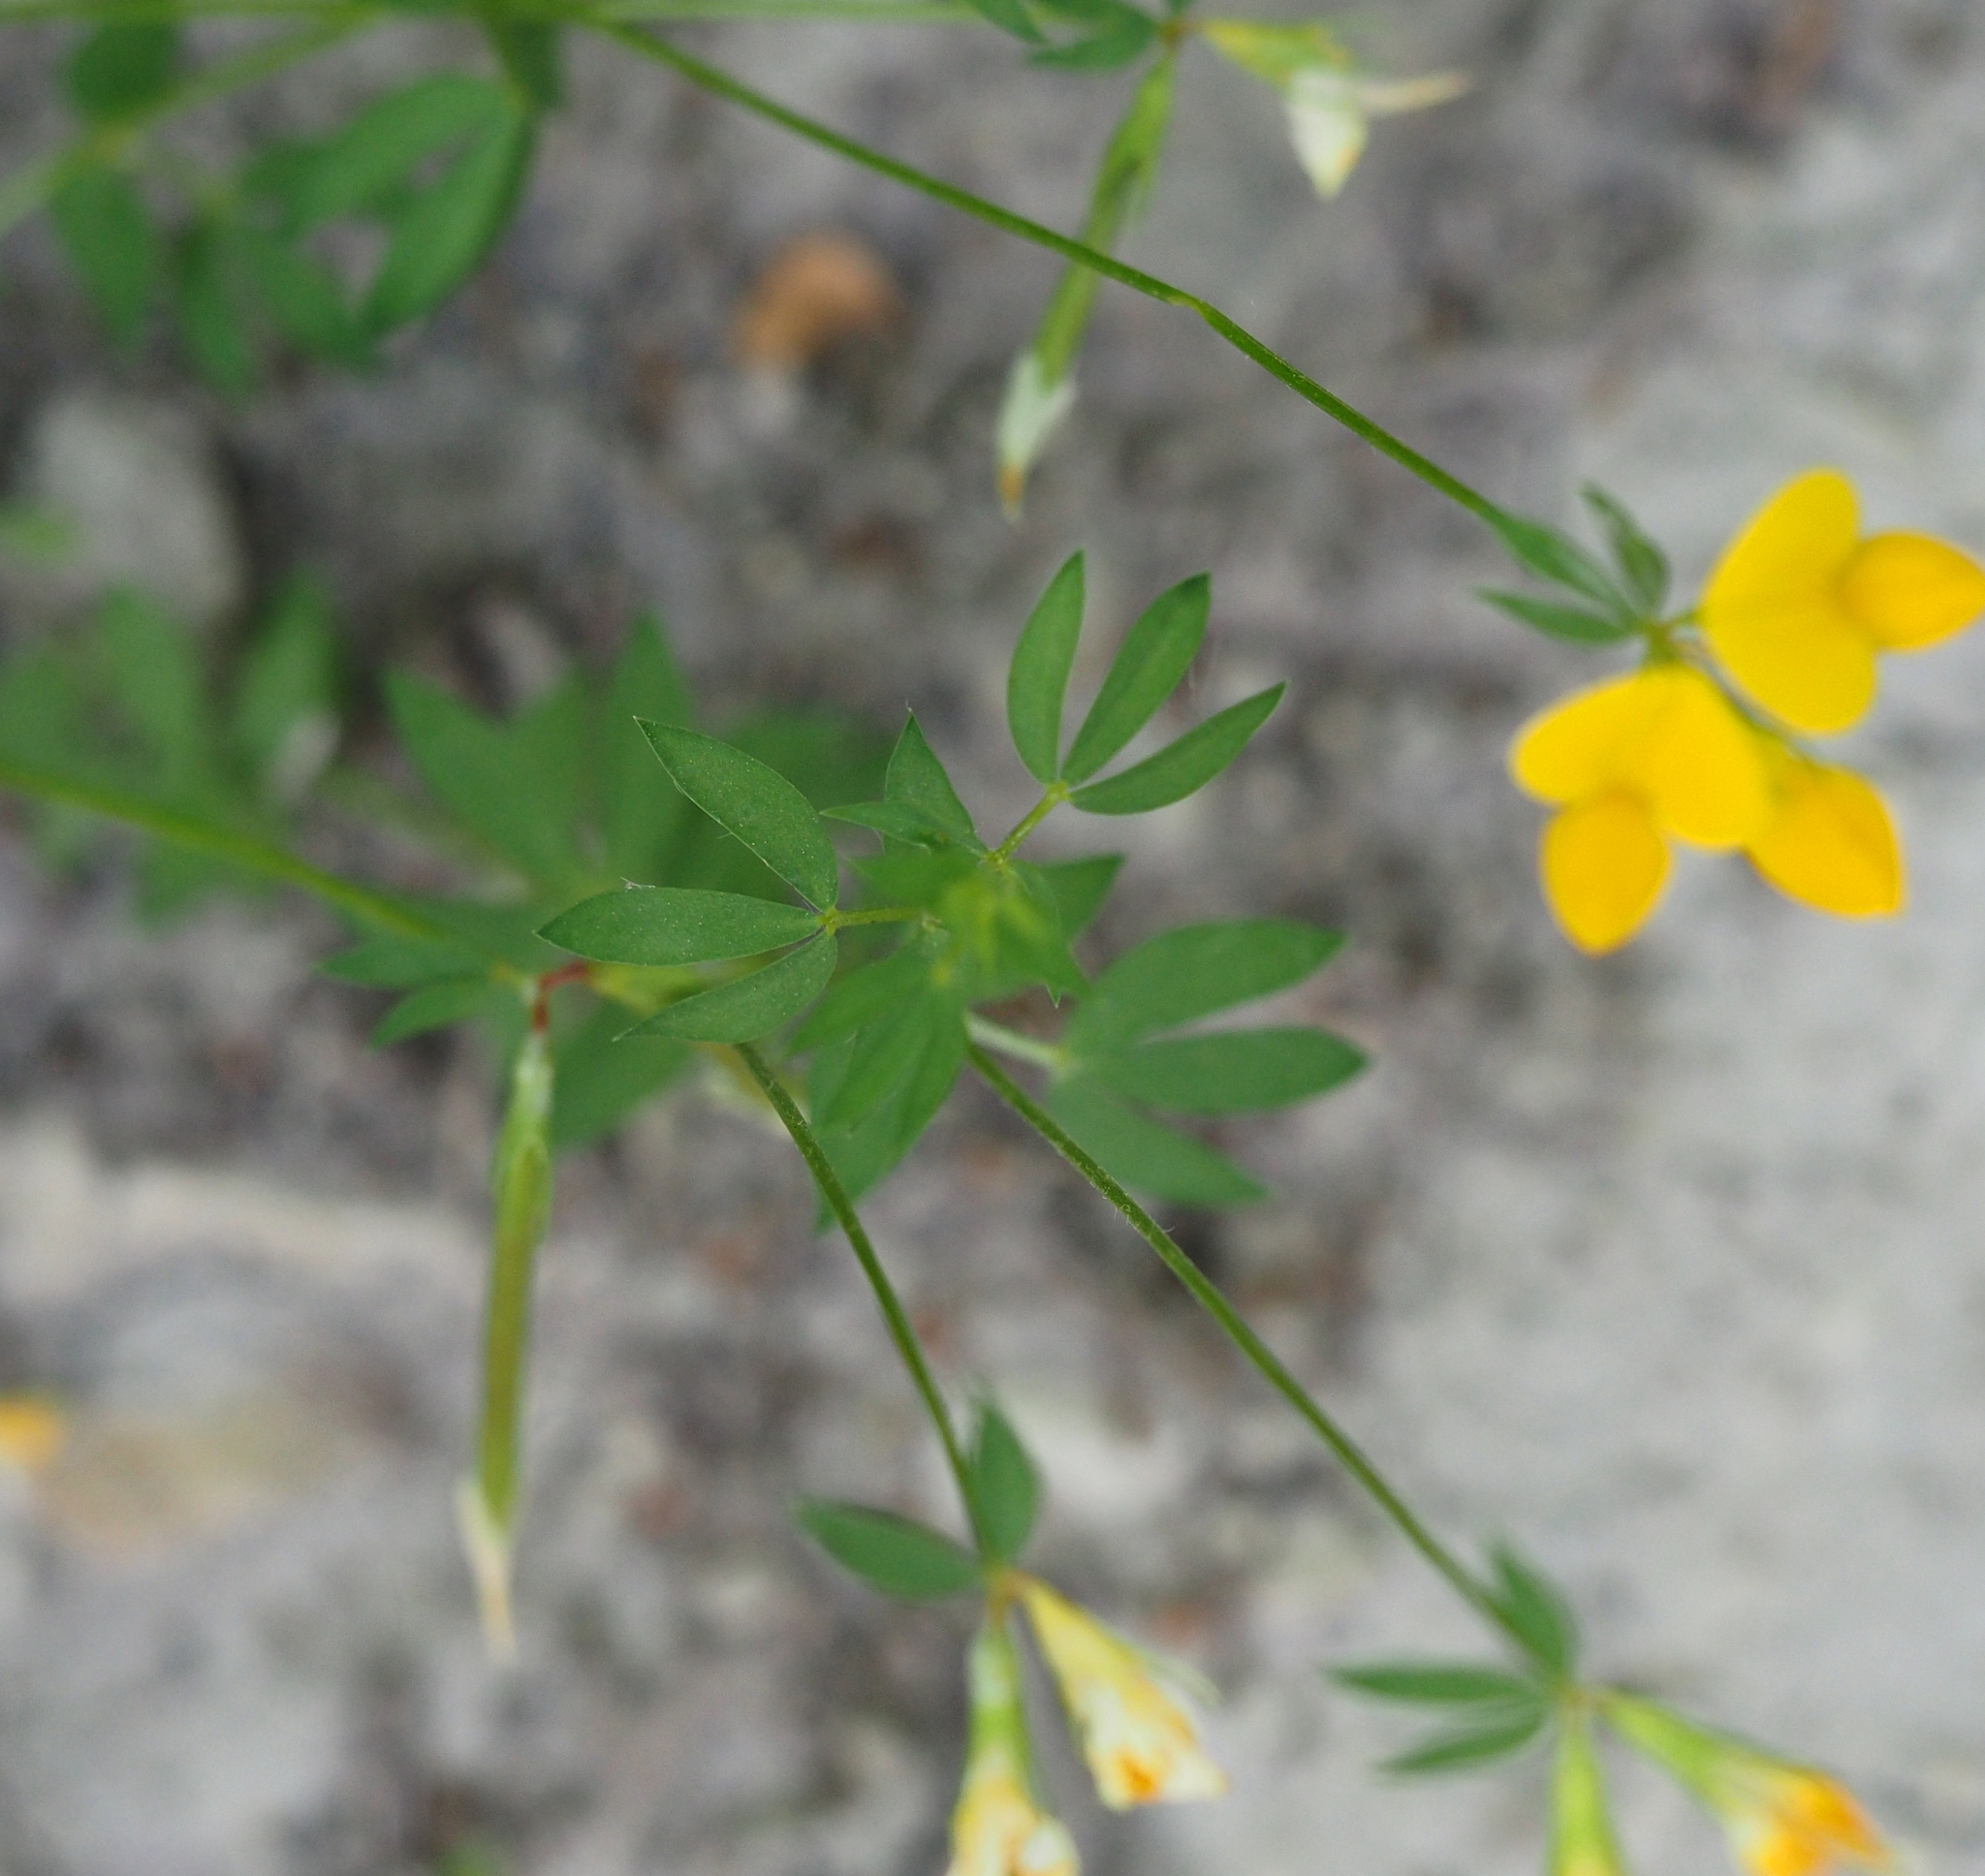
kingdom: Plantae
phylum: Tracheophyta
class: Magnoliopsida
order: Fabales
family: Fabaceae
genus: Lotus
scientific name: Lotus borbasii
